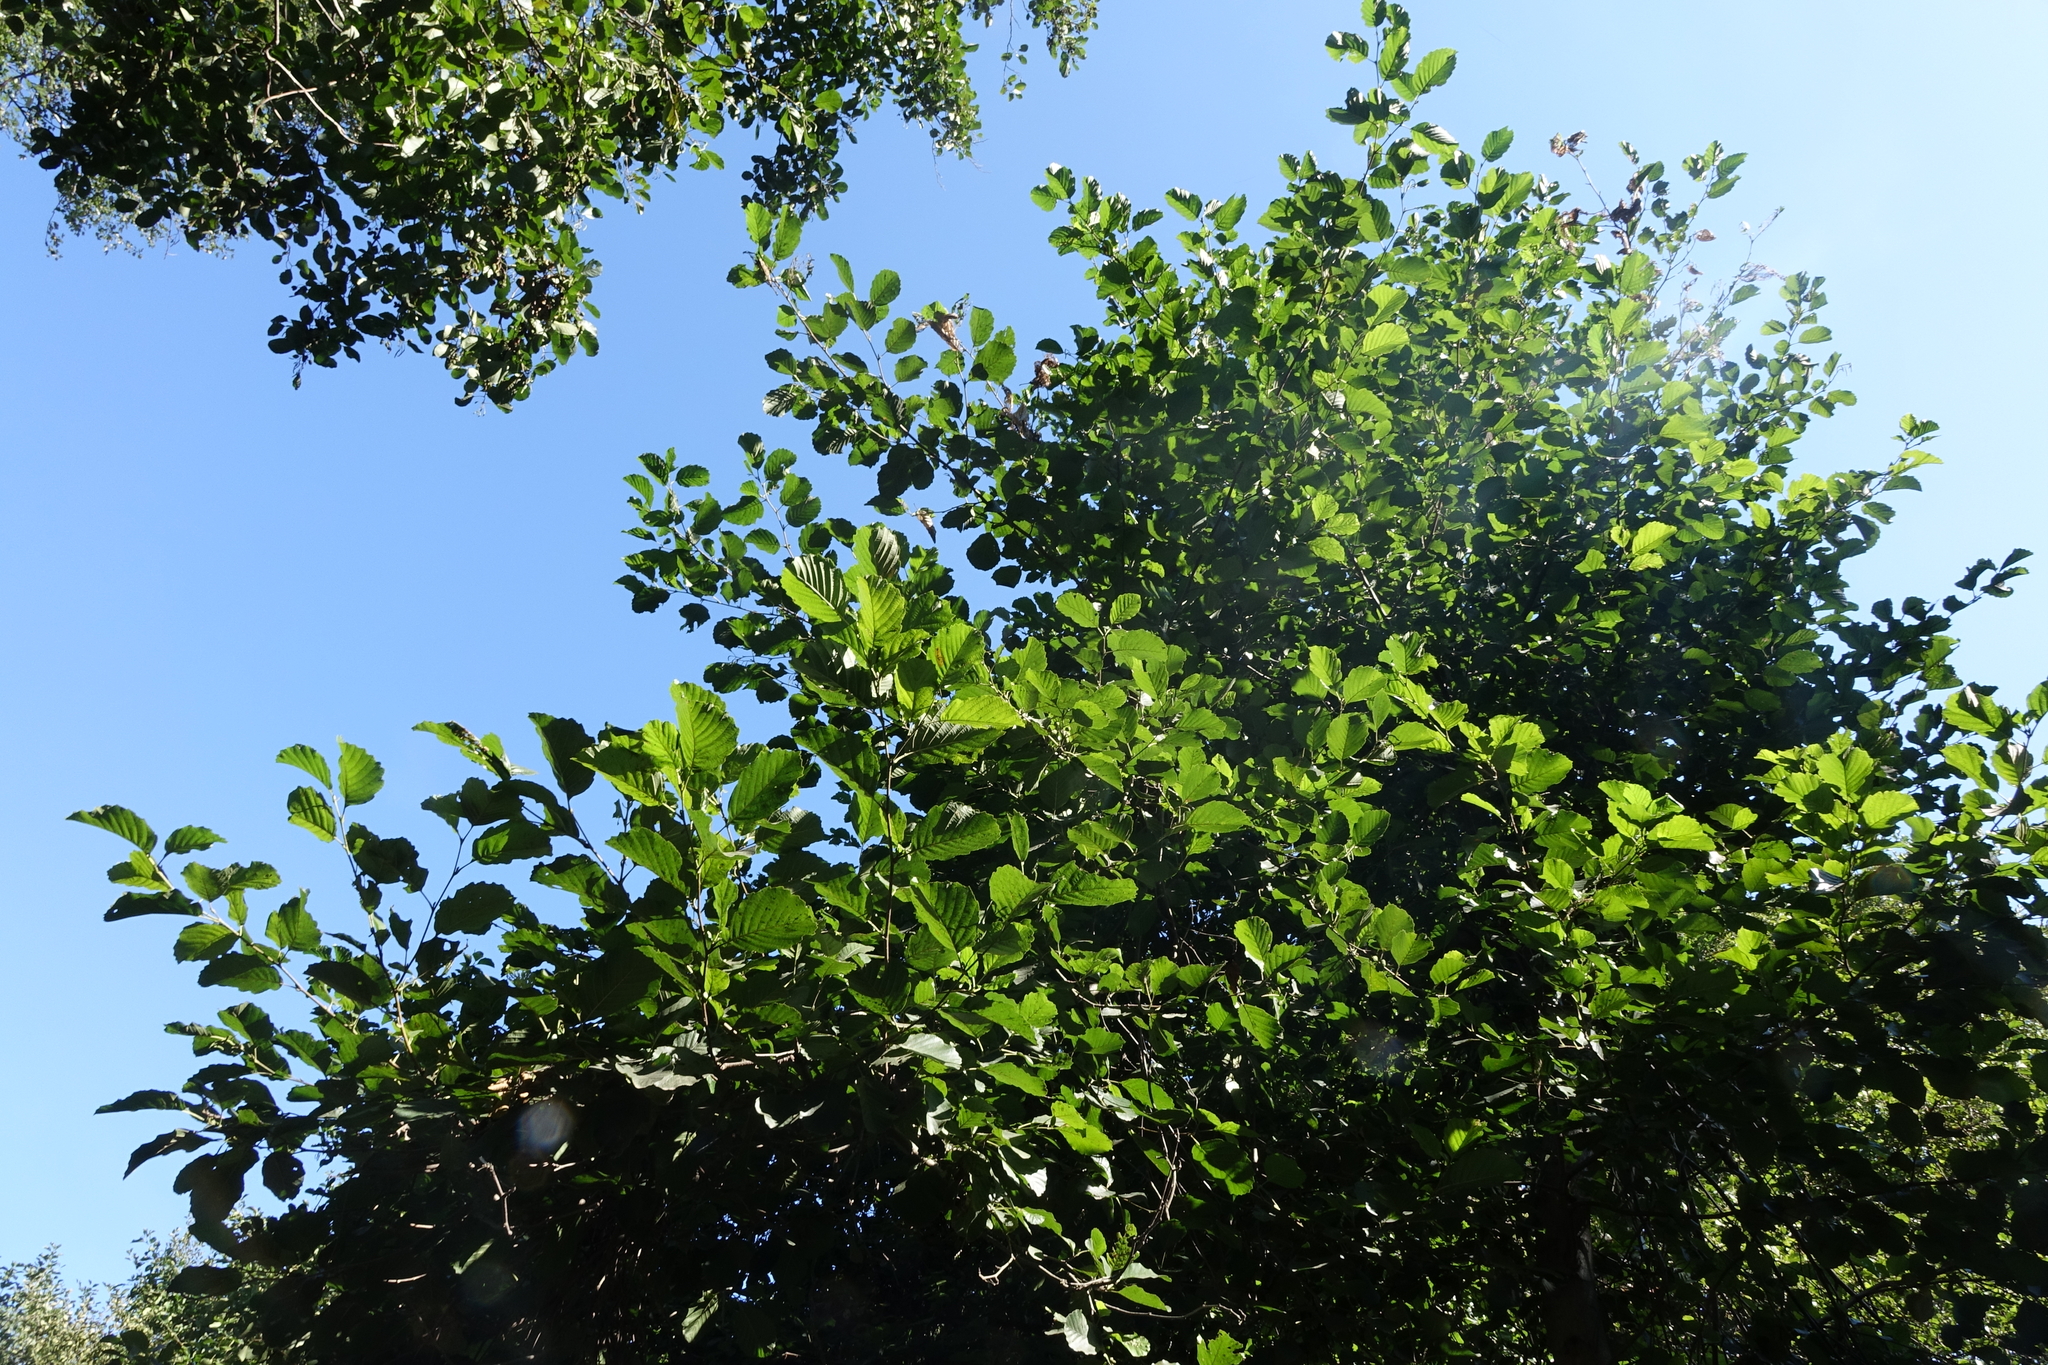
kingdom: Plantae
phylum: Tracheophyta
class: Magnoliopsida
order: Fagales
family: Betulaceae
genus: Alnus
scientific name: Alnus glutinosa
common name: Black alder
